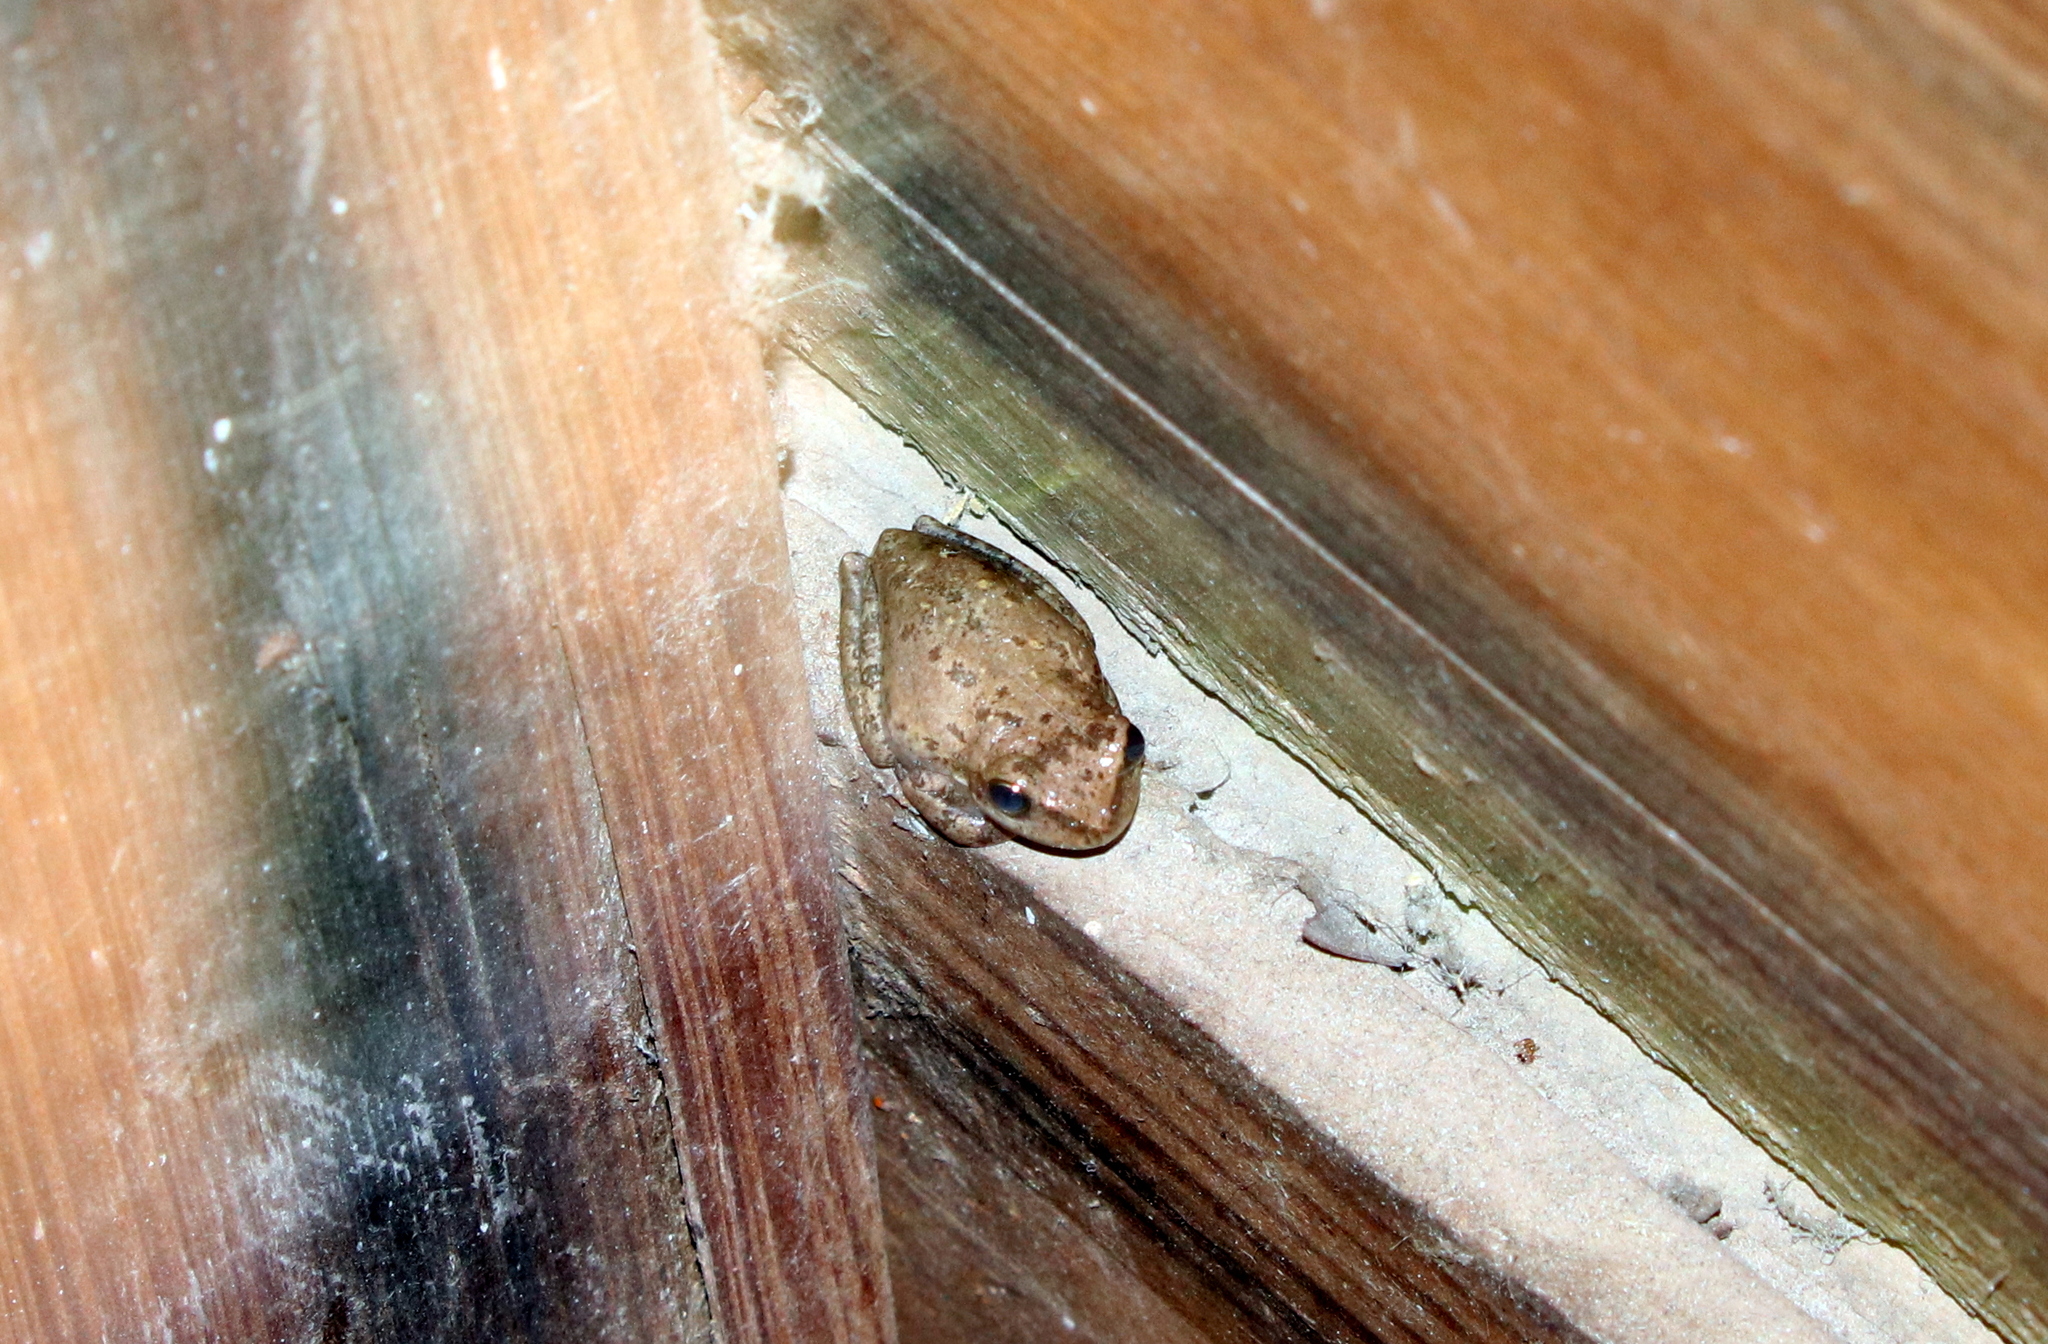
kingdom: Animalia
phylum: Chordata
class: Amphibia
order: Anura
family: Hylidae
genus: Dryophytes
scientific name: Dryophytes squirellus
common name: Squirrel treefrog
